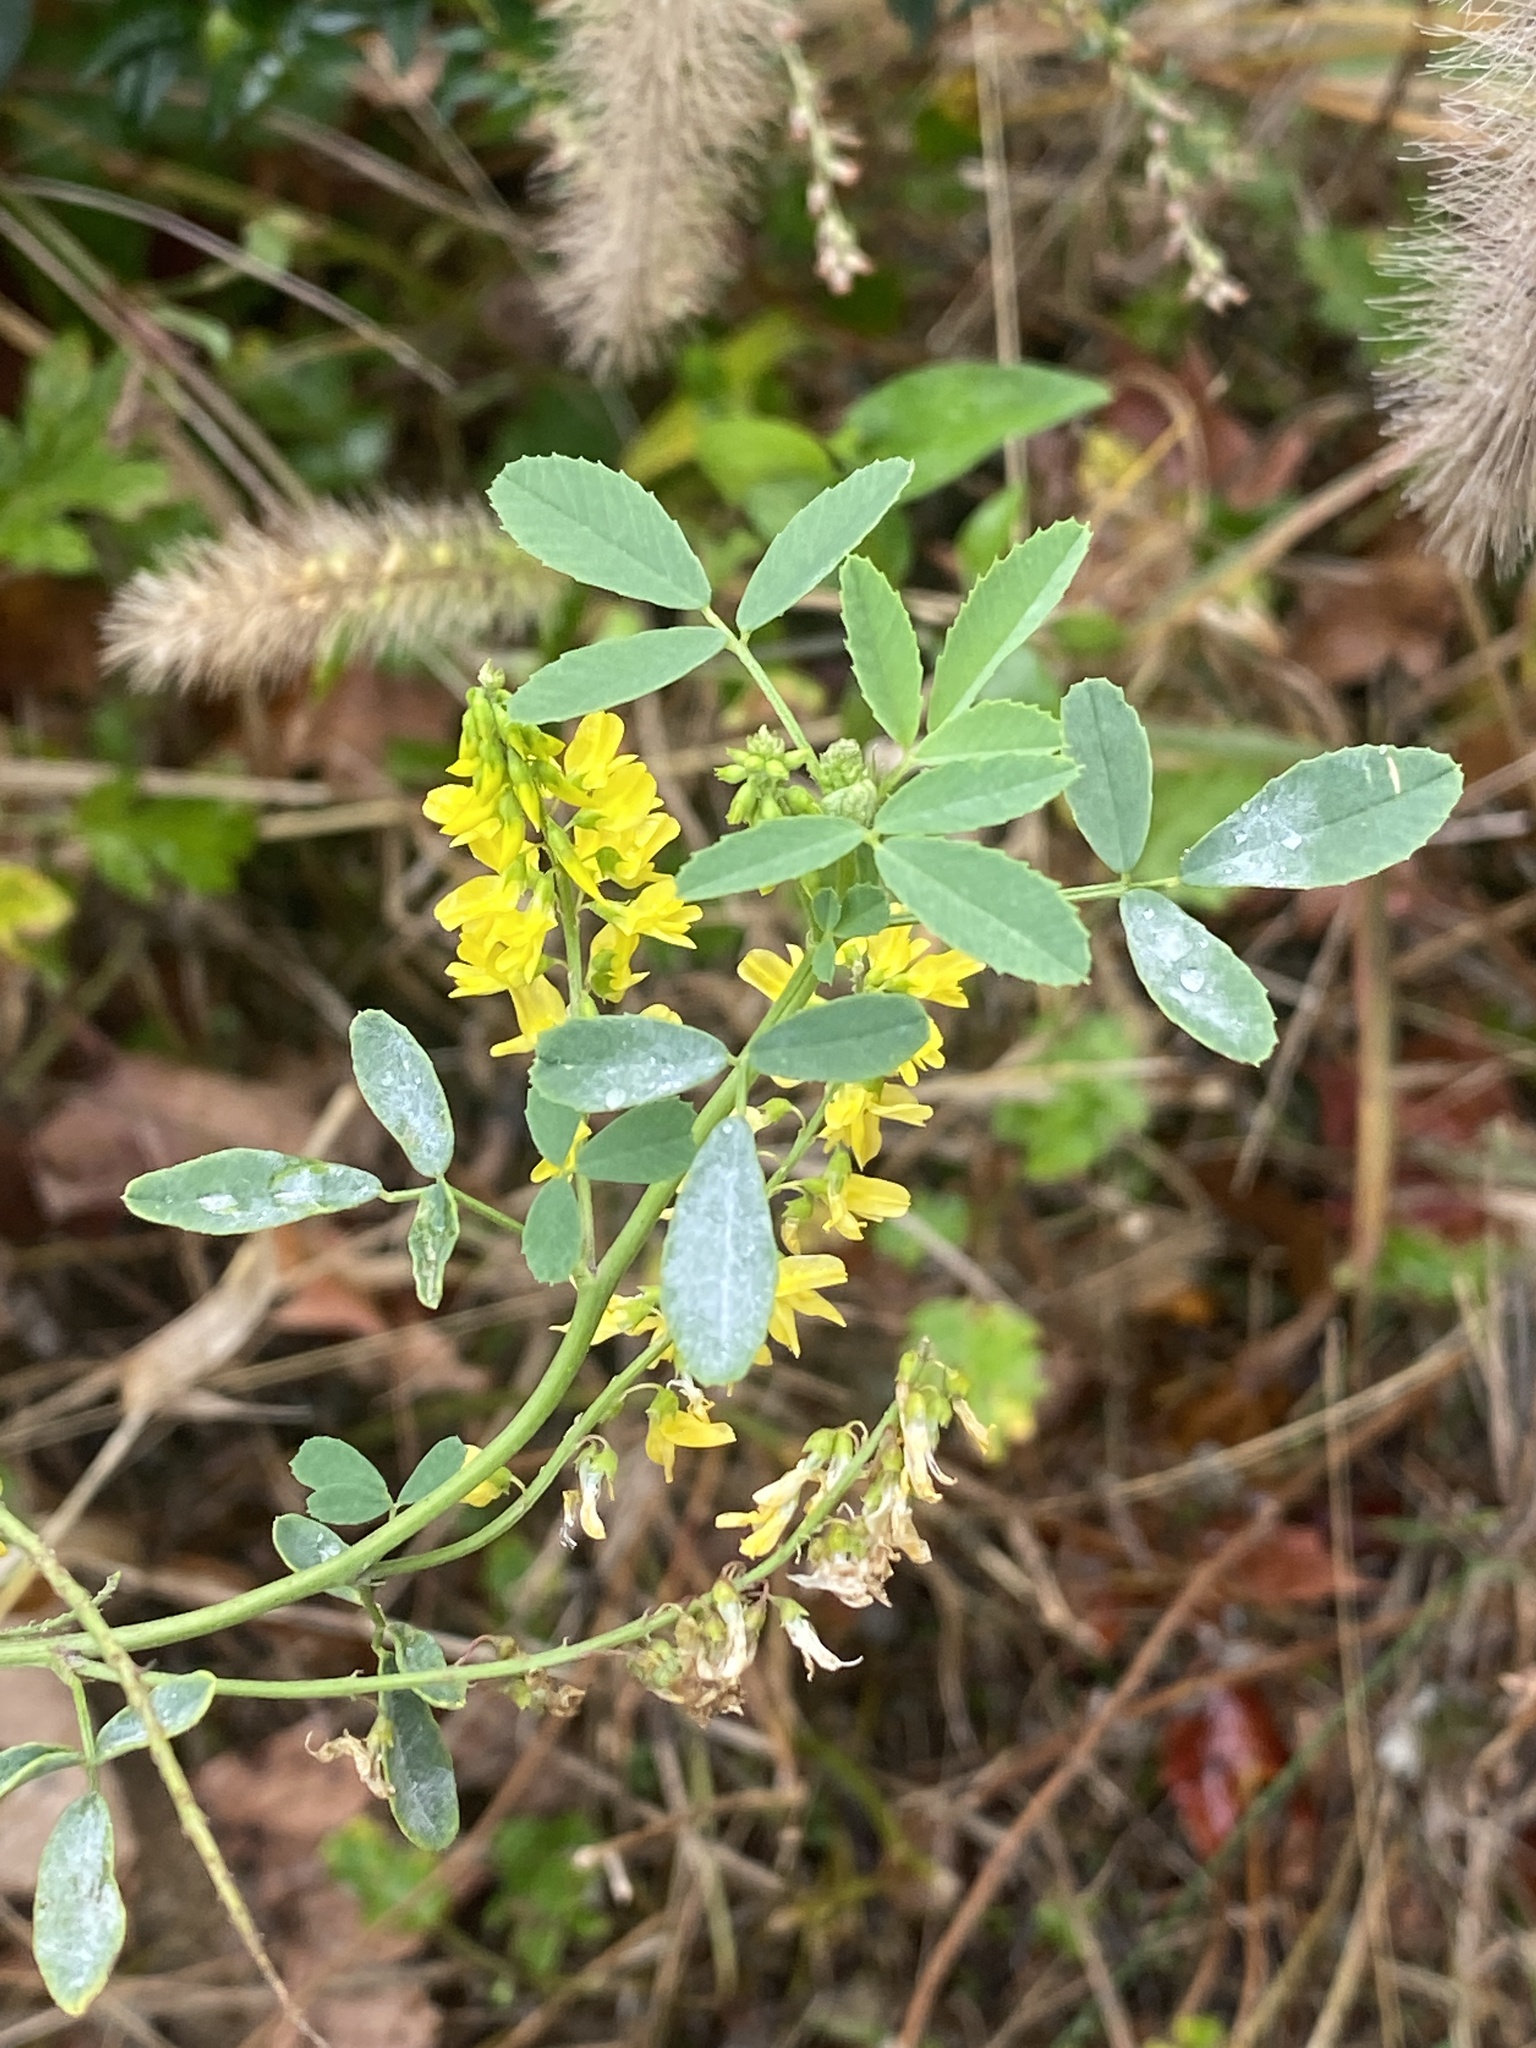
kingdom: Plantae
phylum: Tracheophyta
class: Magnoliopsida
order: Fabales
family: Fabaceae
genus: Melilotus
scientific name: Melilotus officinalis
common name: Sweetclover
